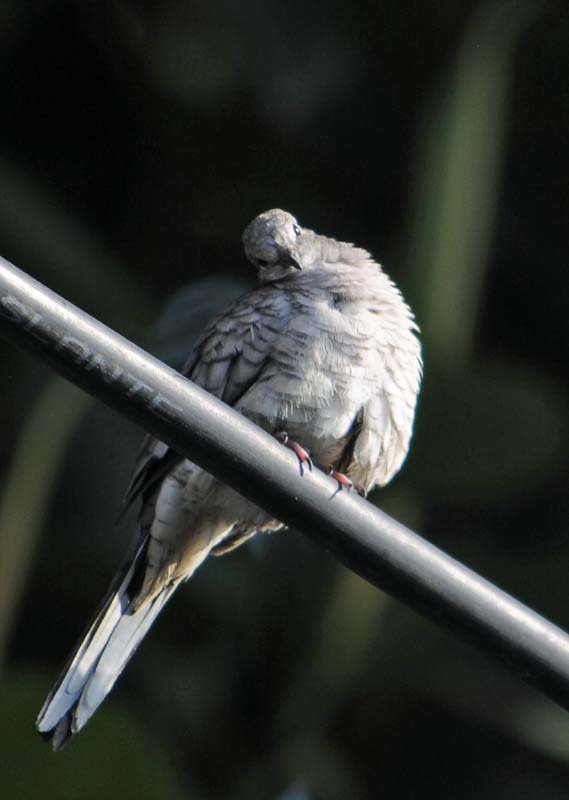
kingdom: Animalia
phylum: Chordata
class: Aves
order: Columbiformes
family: Columbidae
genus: Columbina
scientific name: Columbina inca
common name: Inca dove
